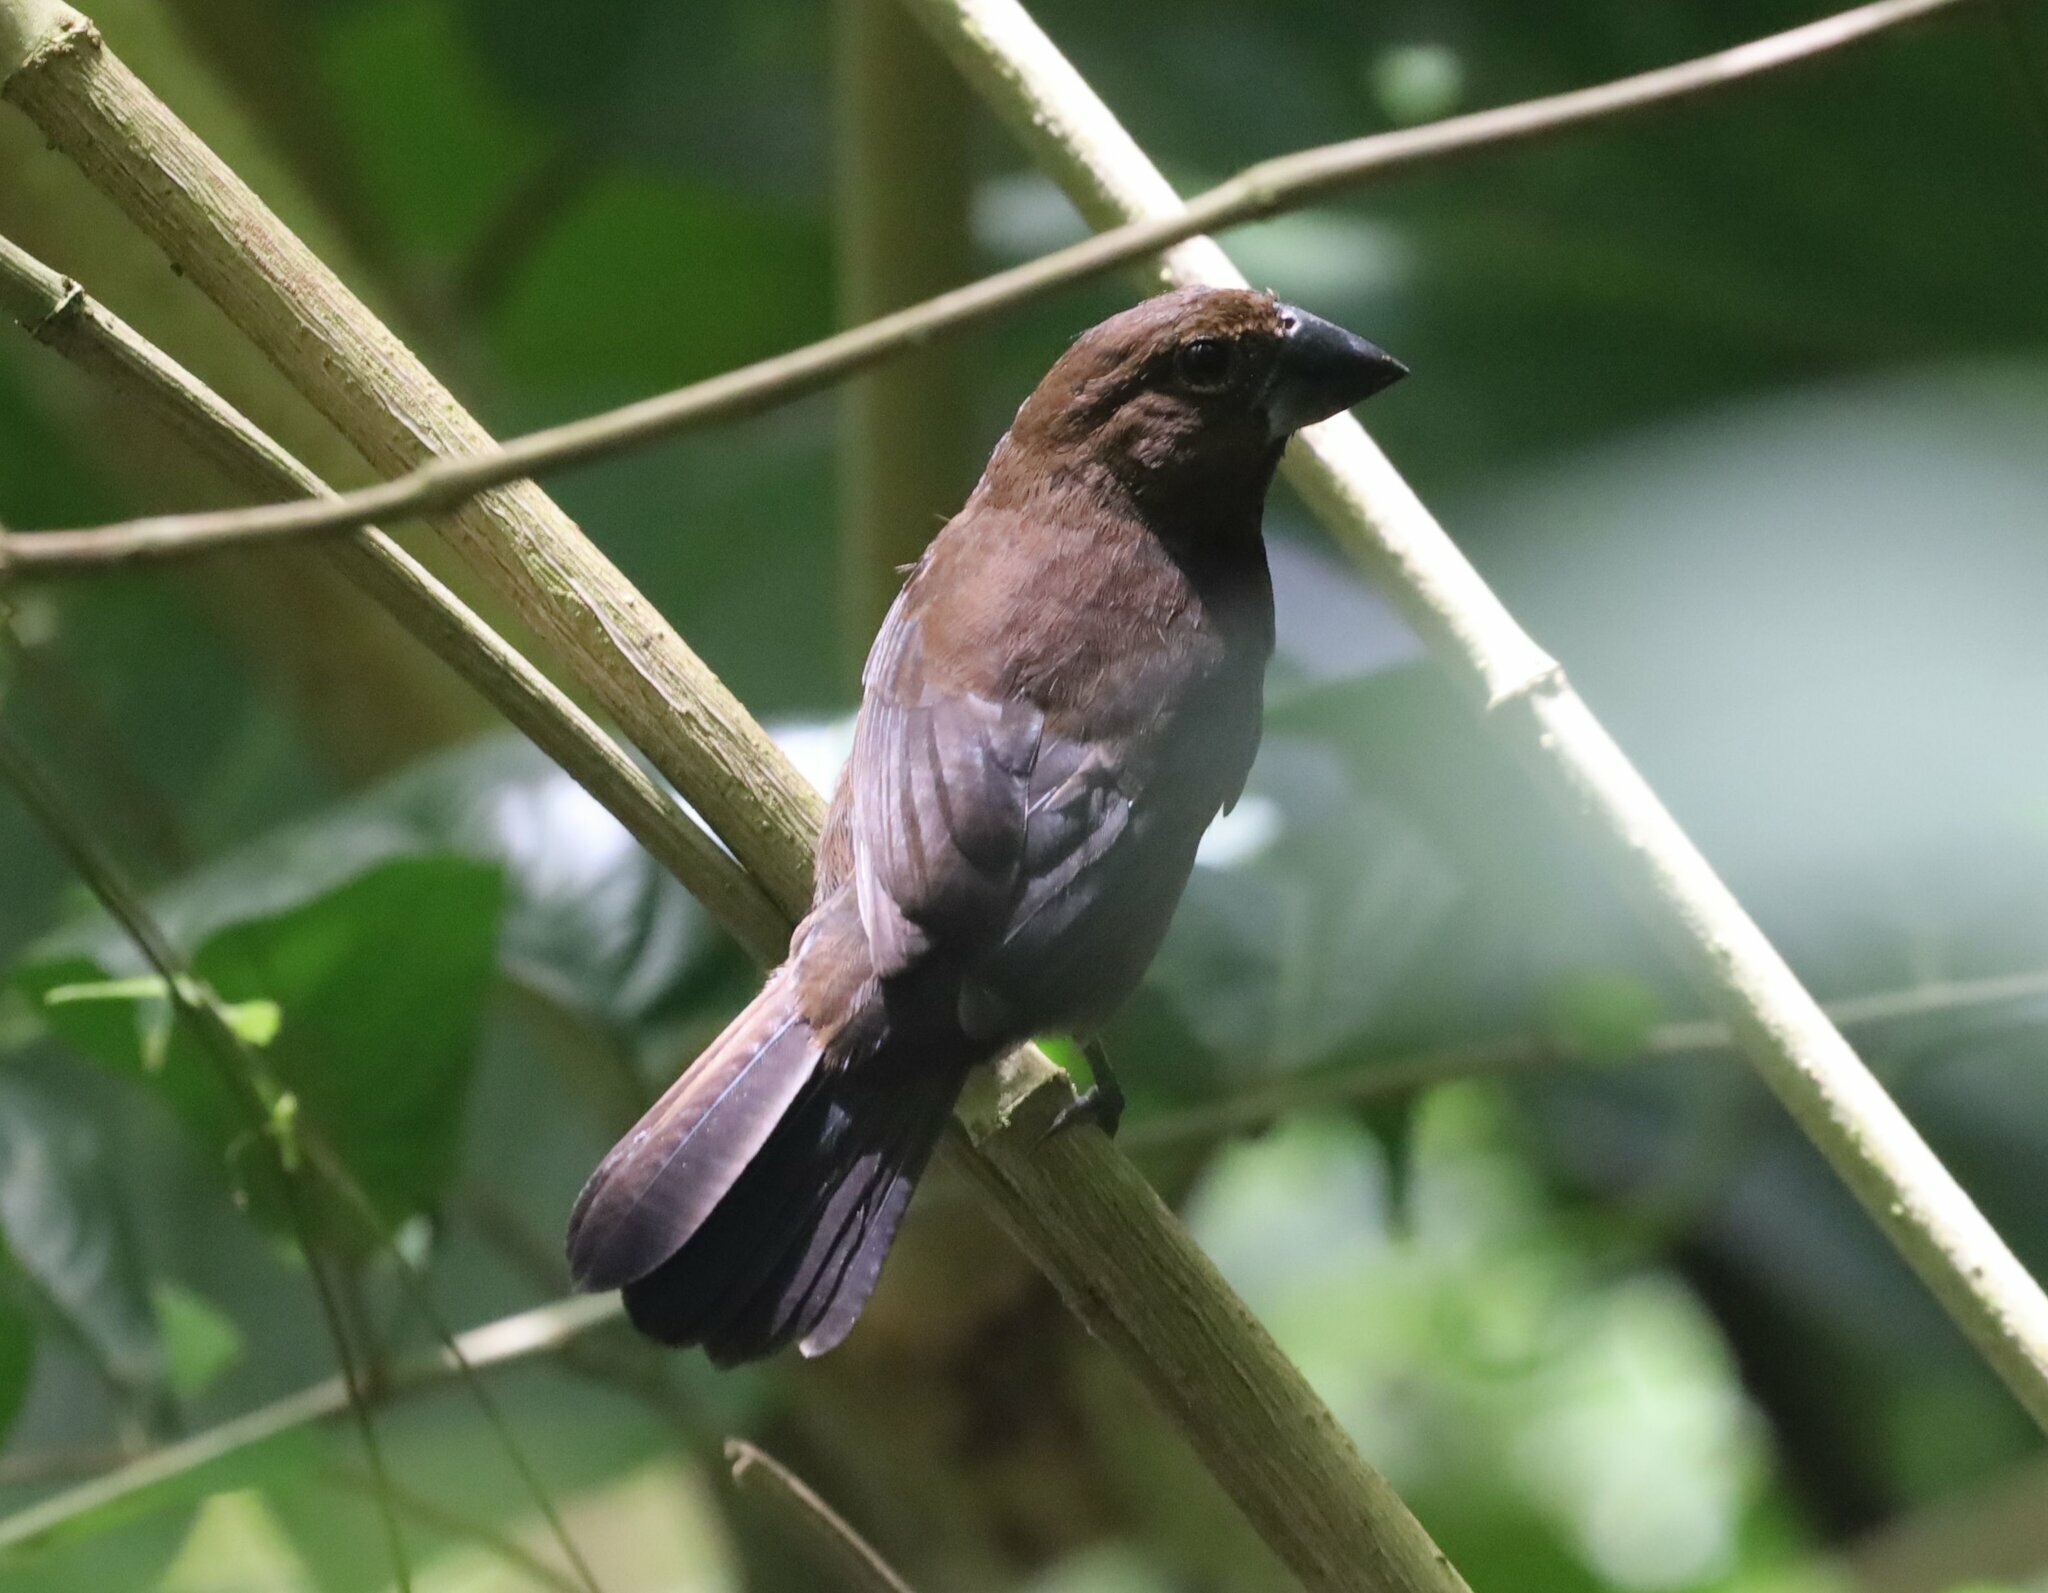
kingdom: Animalia
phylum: Chordata
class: Aves
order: Passeriformes
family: Cardinalidae
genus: Cyanocompsa
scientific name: Cyanocompsa cyanoides
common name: Blue-black grosbeak
